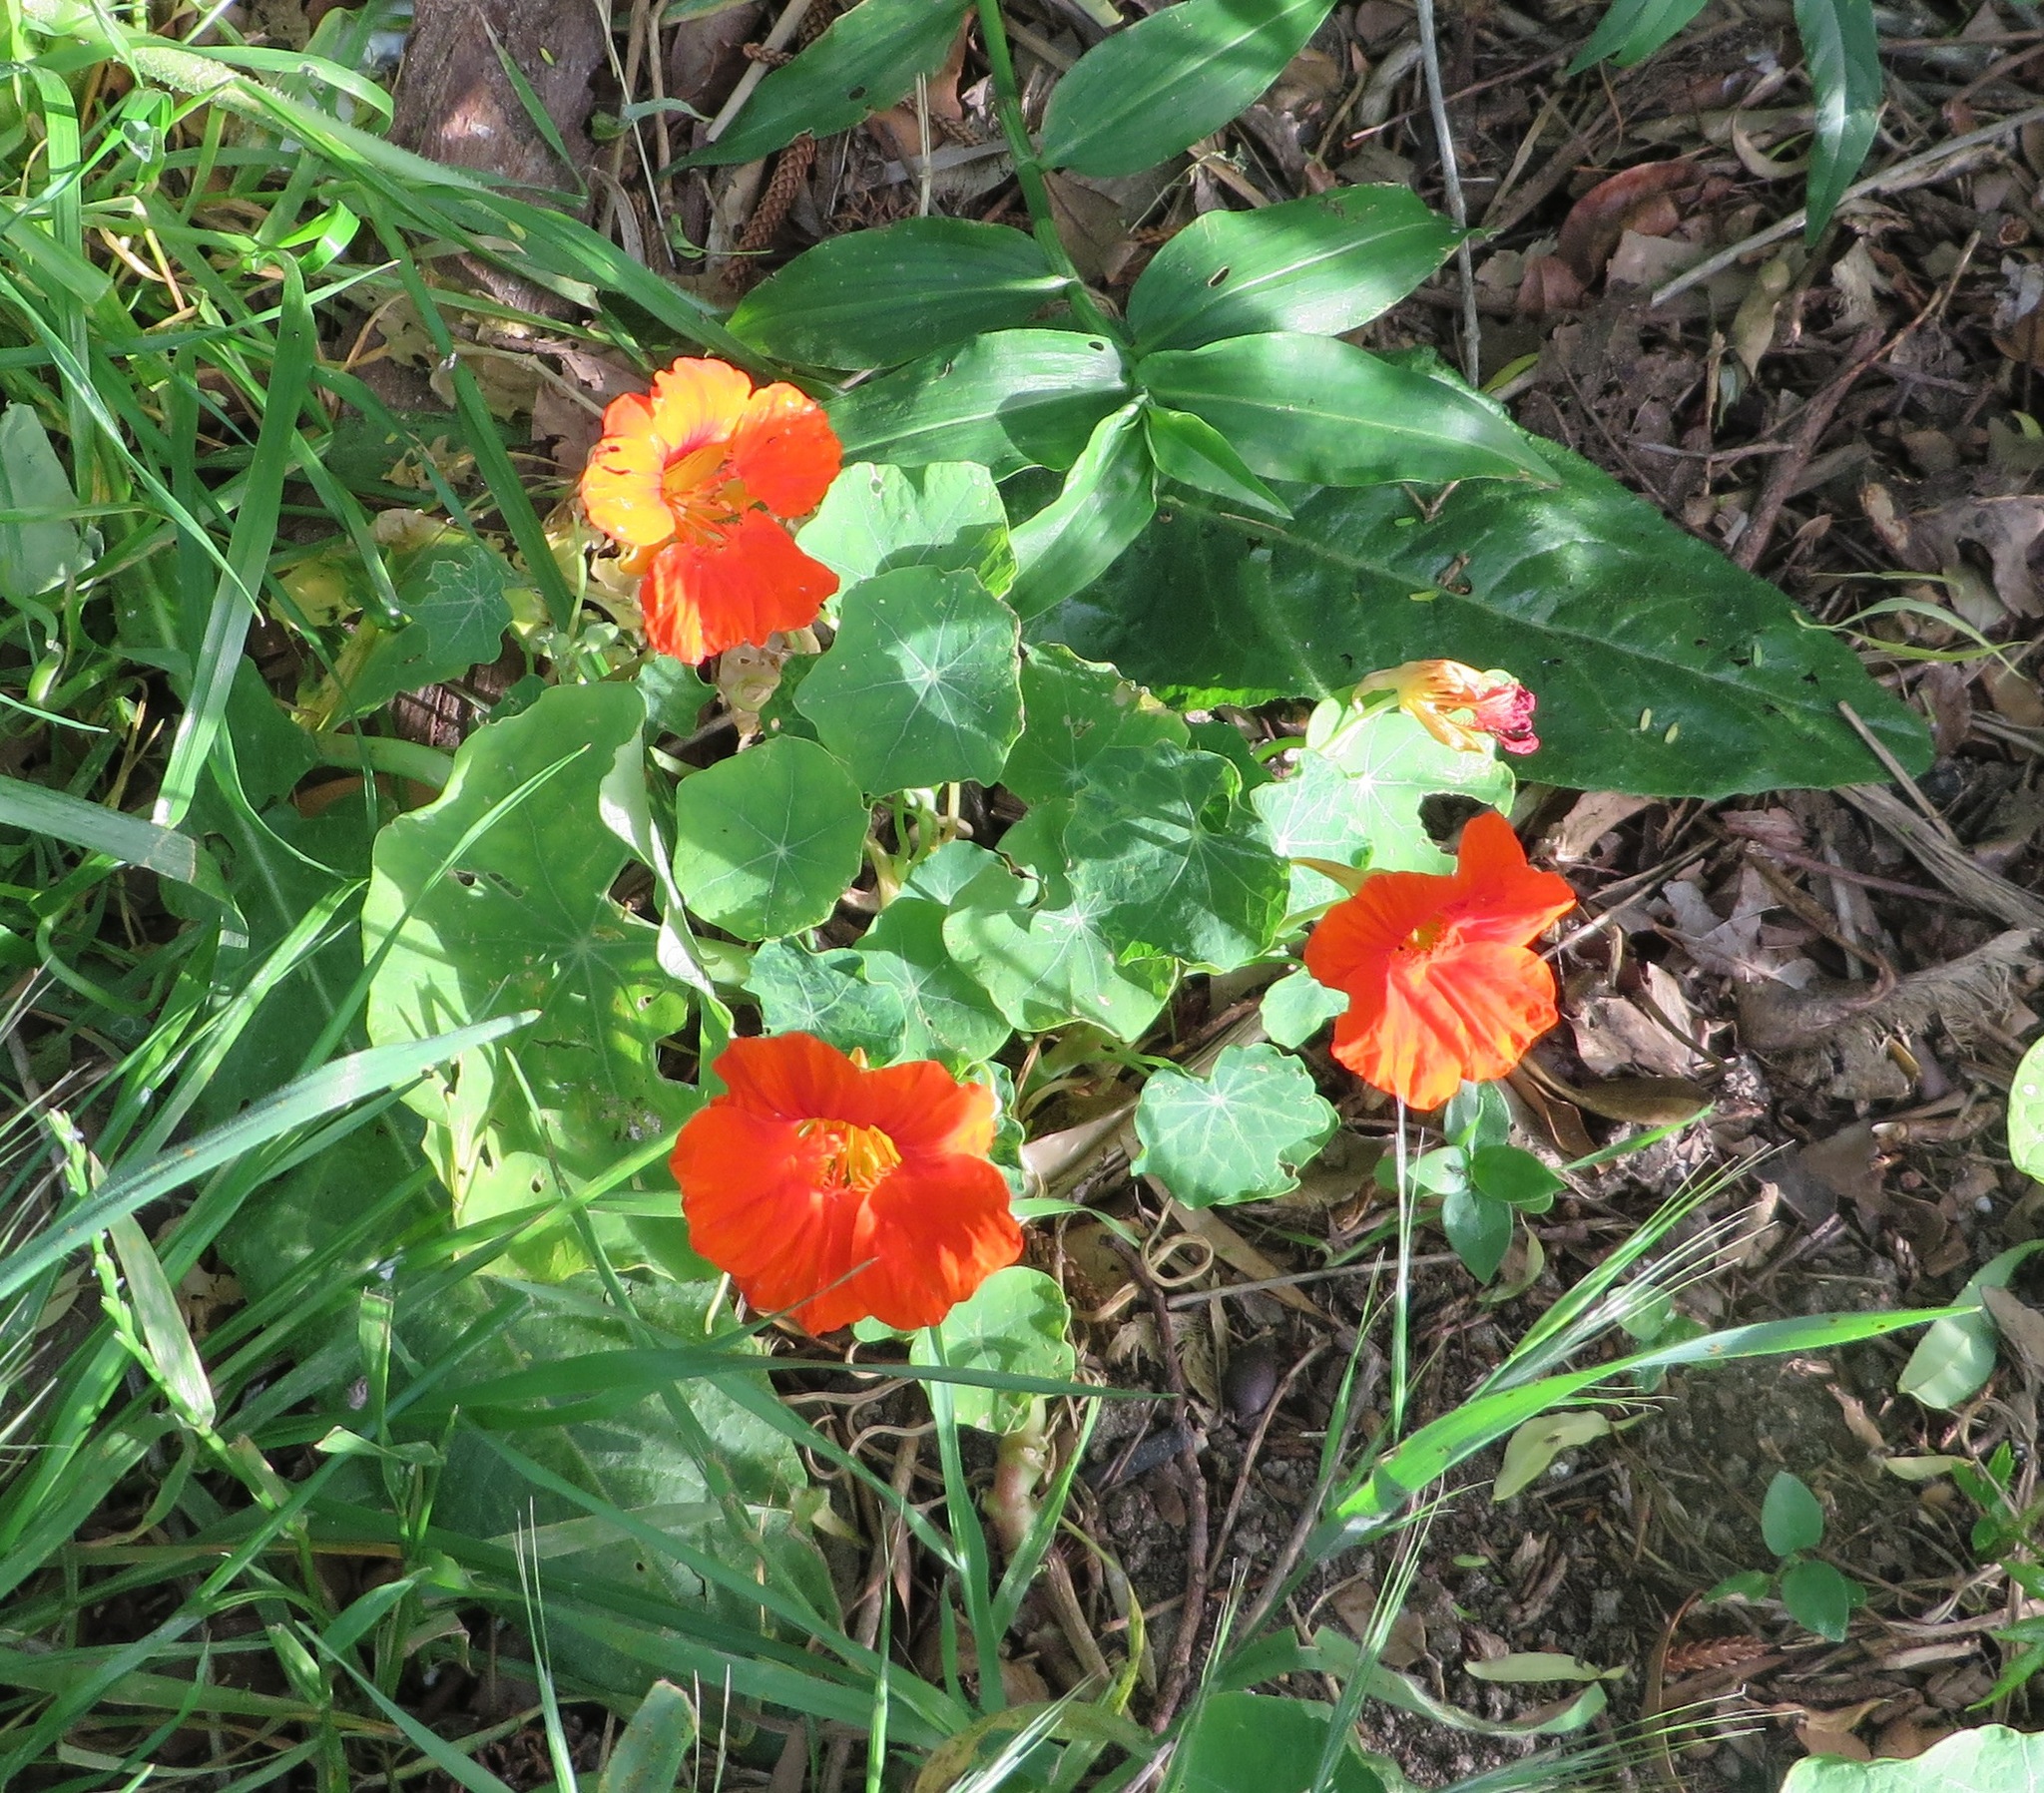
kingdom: Plantae
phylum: Tracheophyta
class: Magnoliopsida
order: Brassicales
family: Tropaeolaceae
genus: Tropaeolum
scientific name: Tropaeolum majus
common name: Nasturtium
